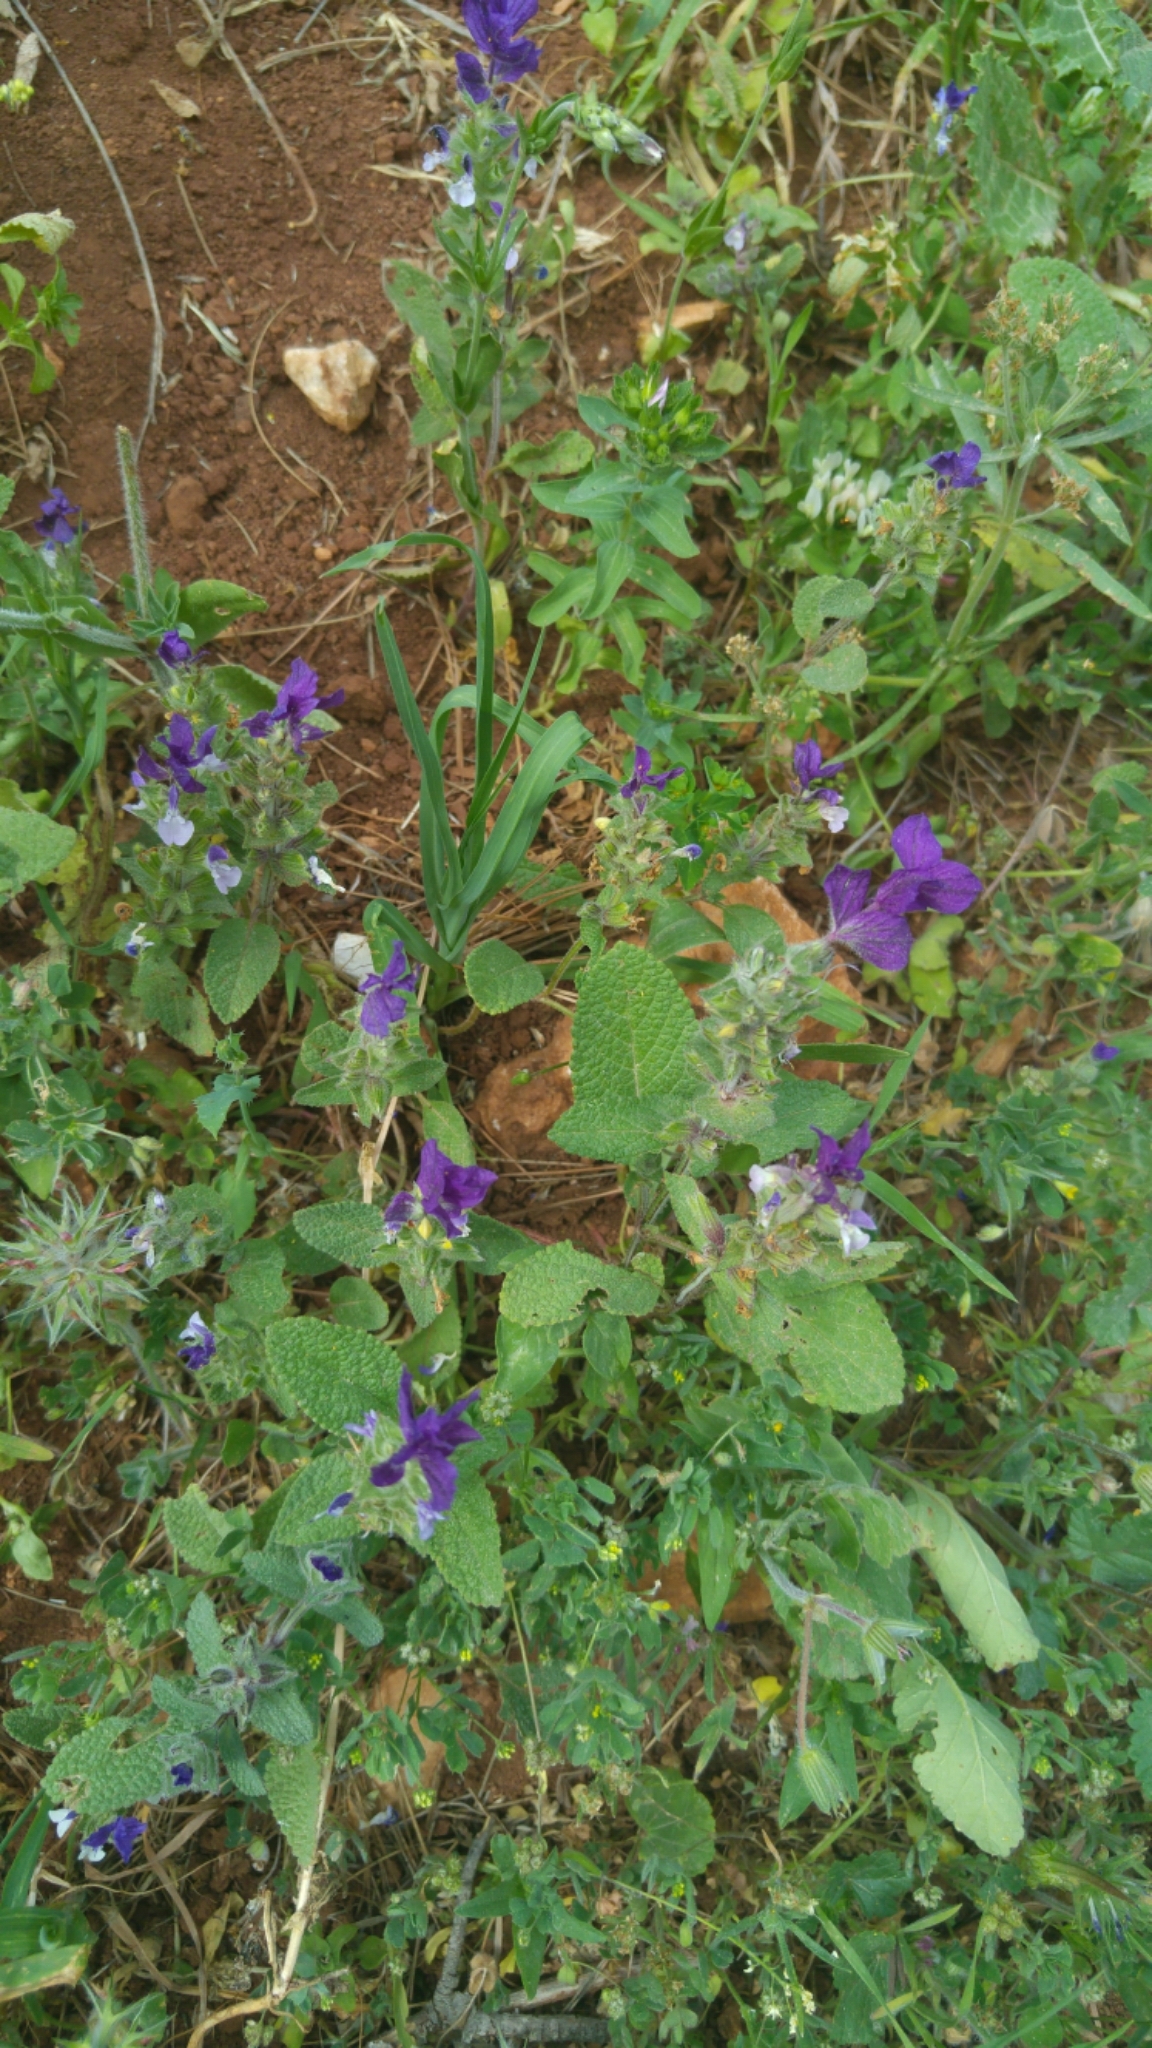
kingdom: Plantae
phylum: Tracheophyta
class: Magnoliopsida
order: Lamiales
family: Lamiaceae
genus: Salvia
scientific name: Salvia viridis
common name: Annual clary
